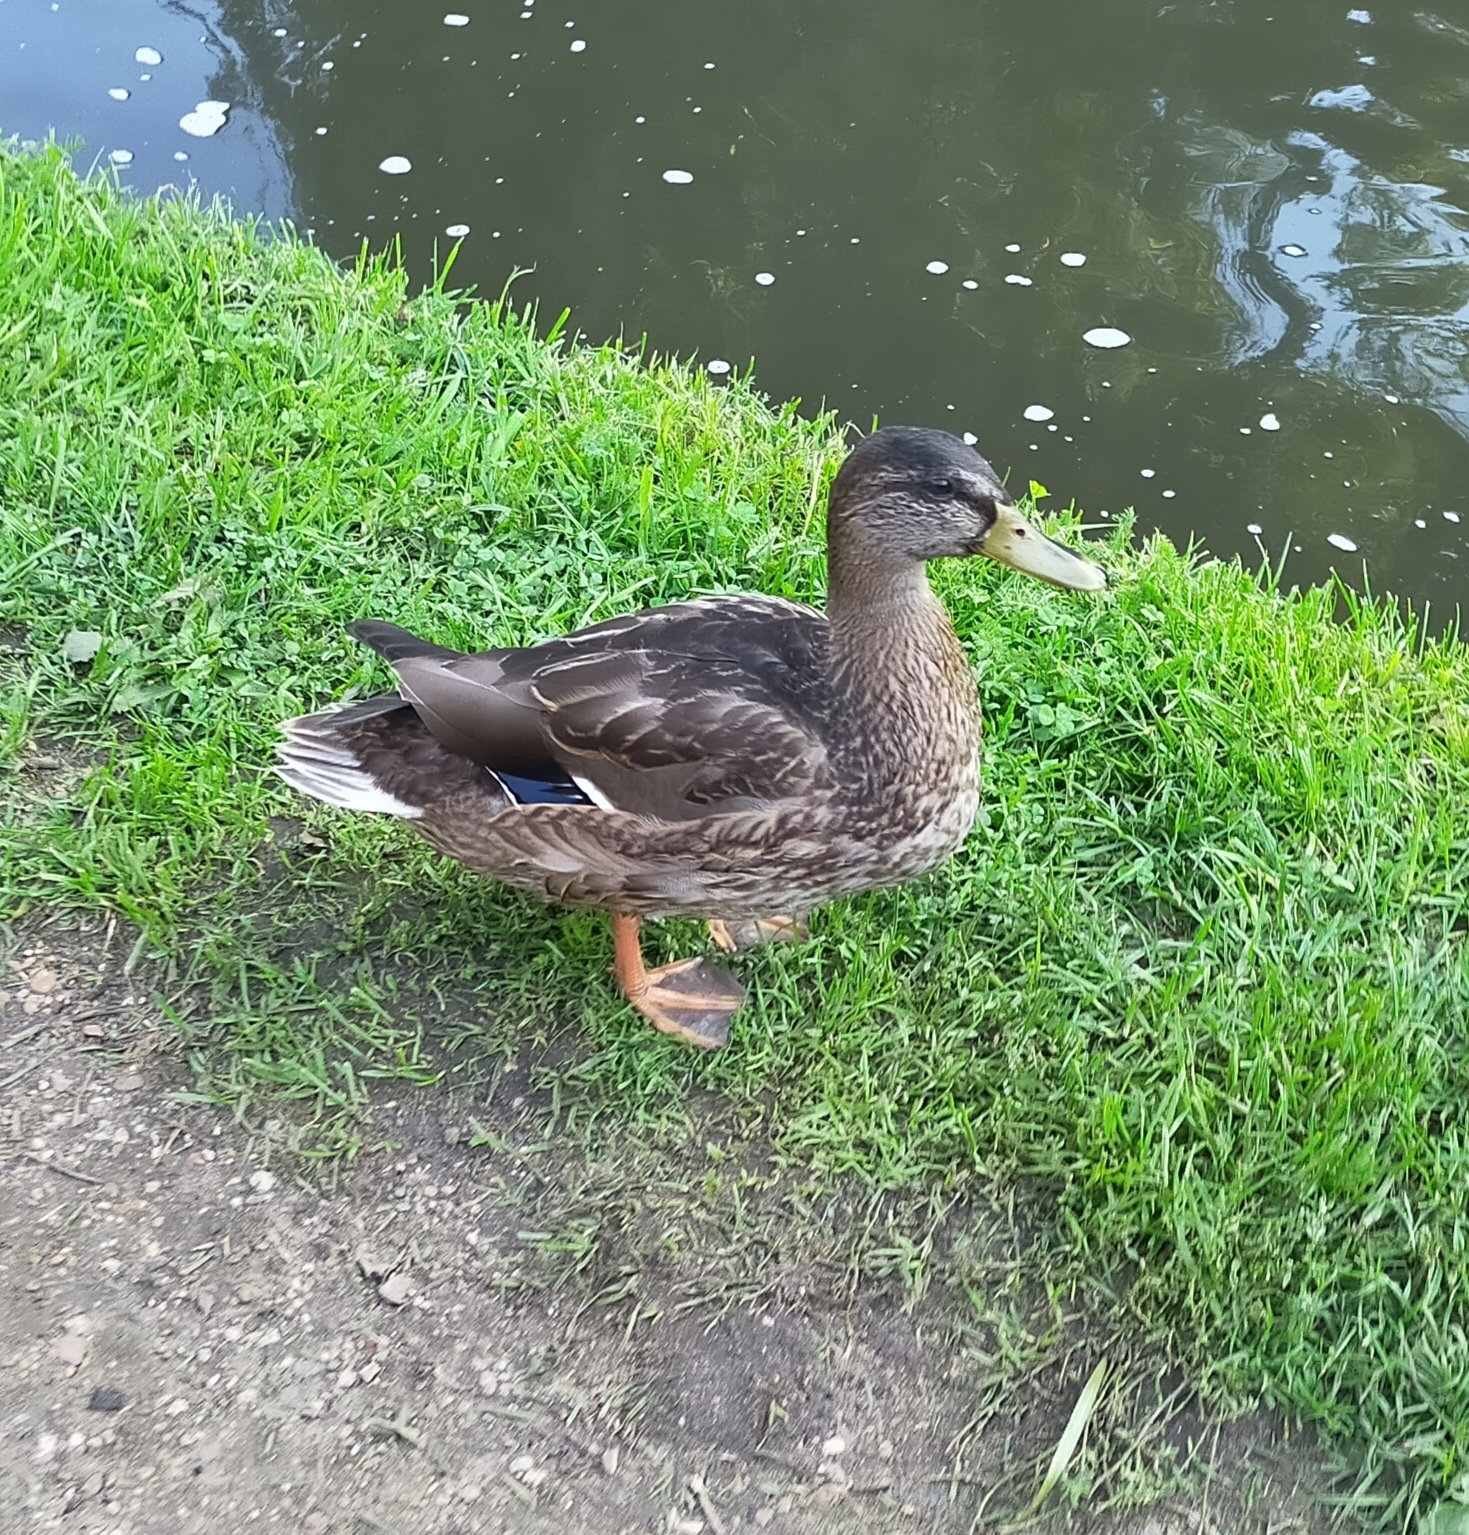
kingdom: Animalia
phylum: Chordata
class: Aves
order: Anseriformes
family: Anatidae
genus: Anas
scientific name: Anas platyrhynchos
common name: Mallard
